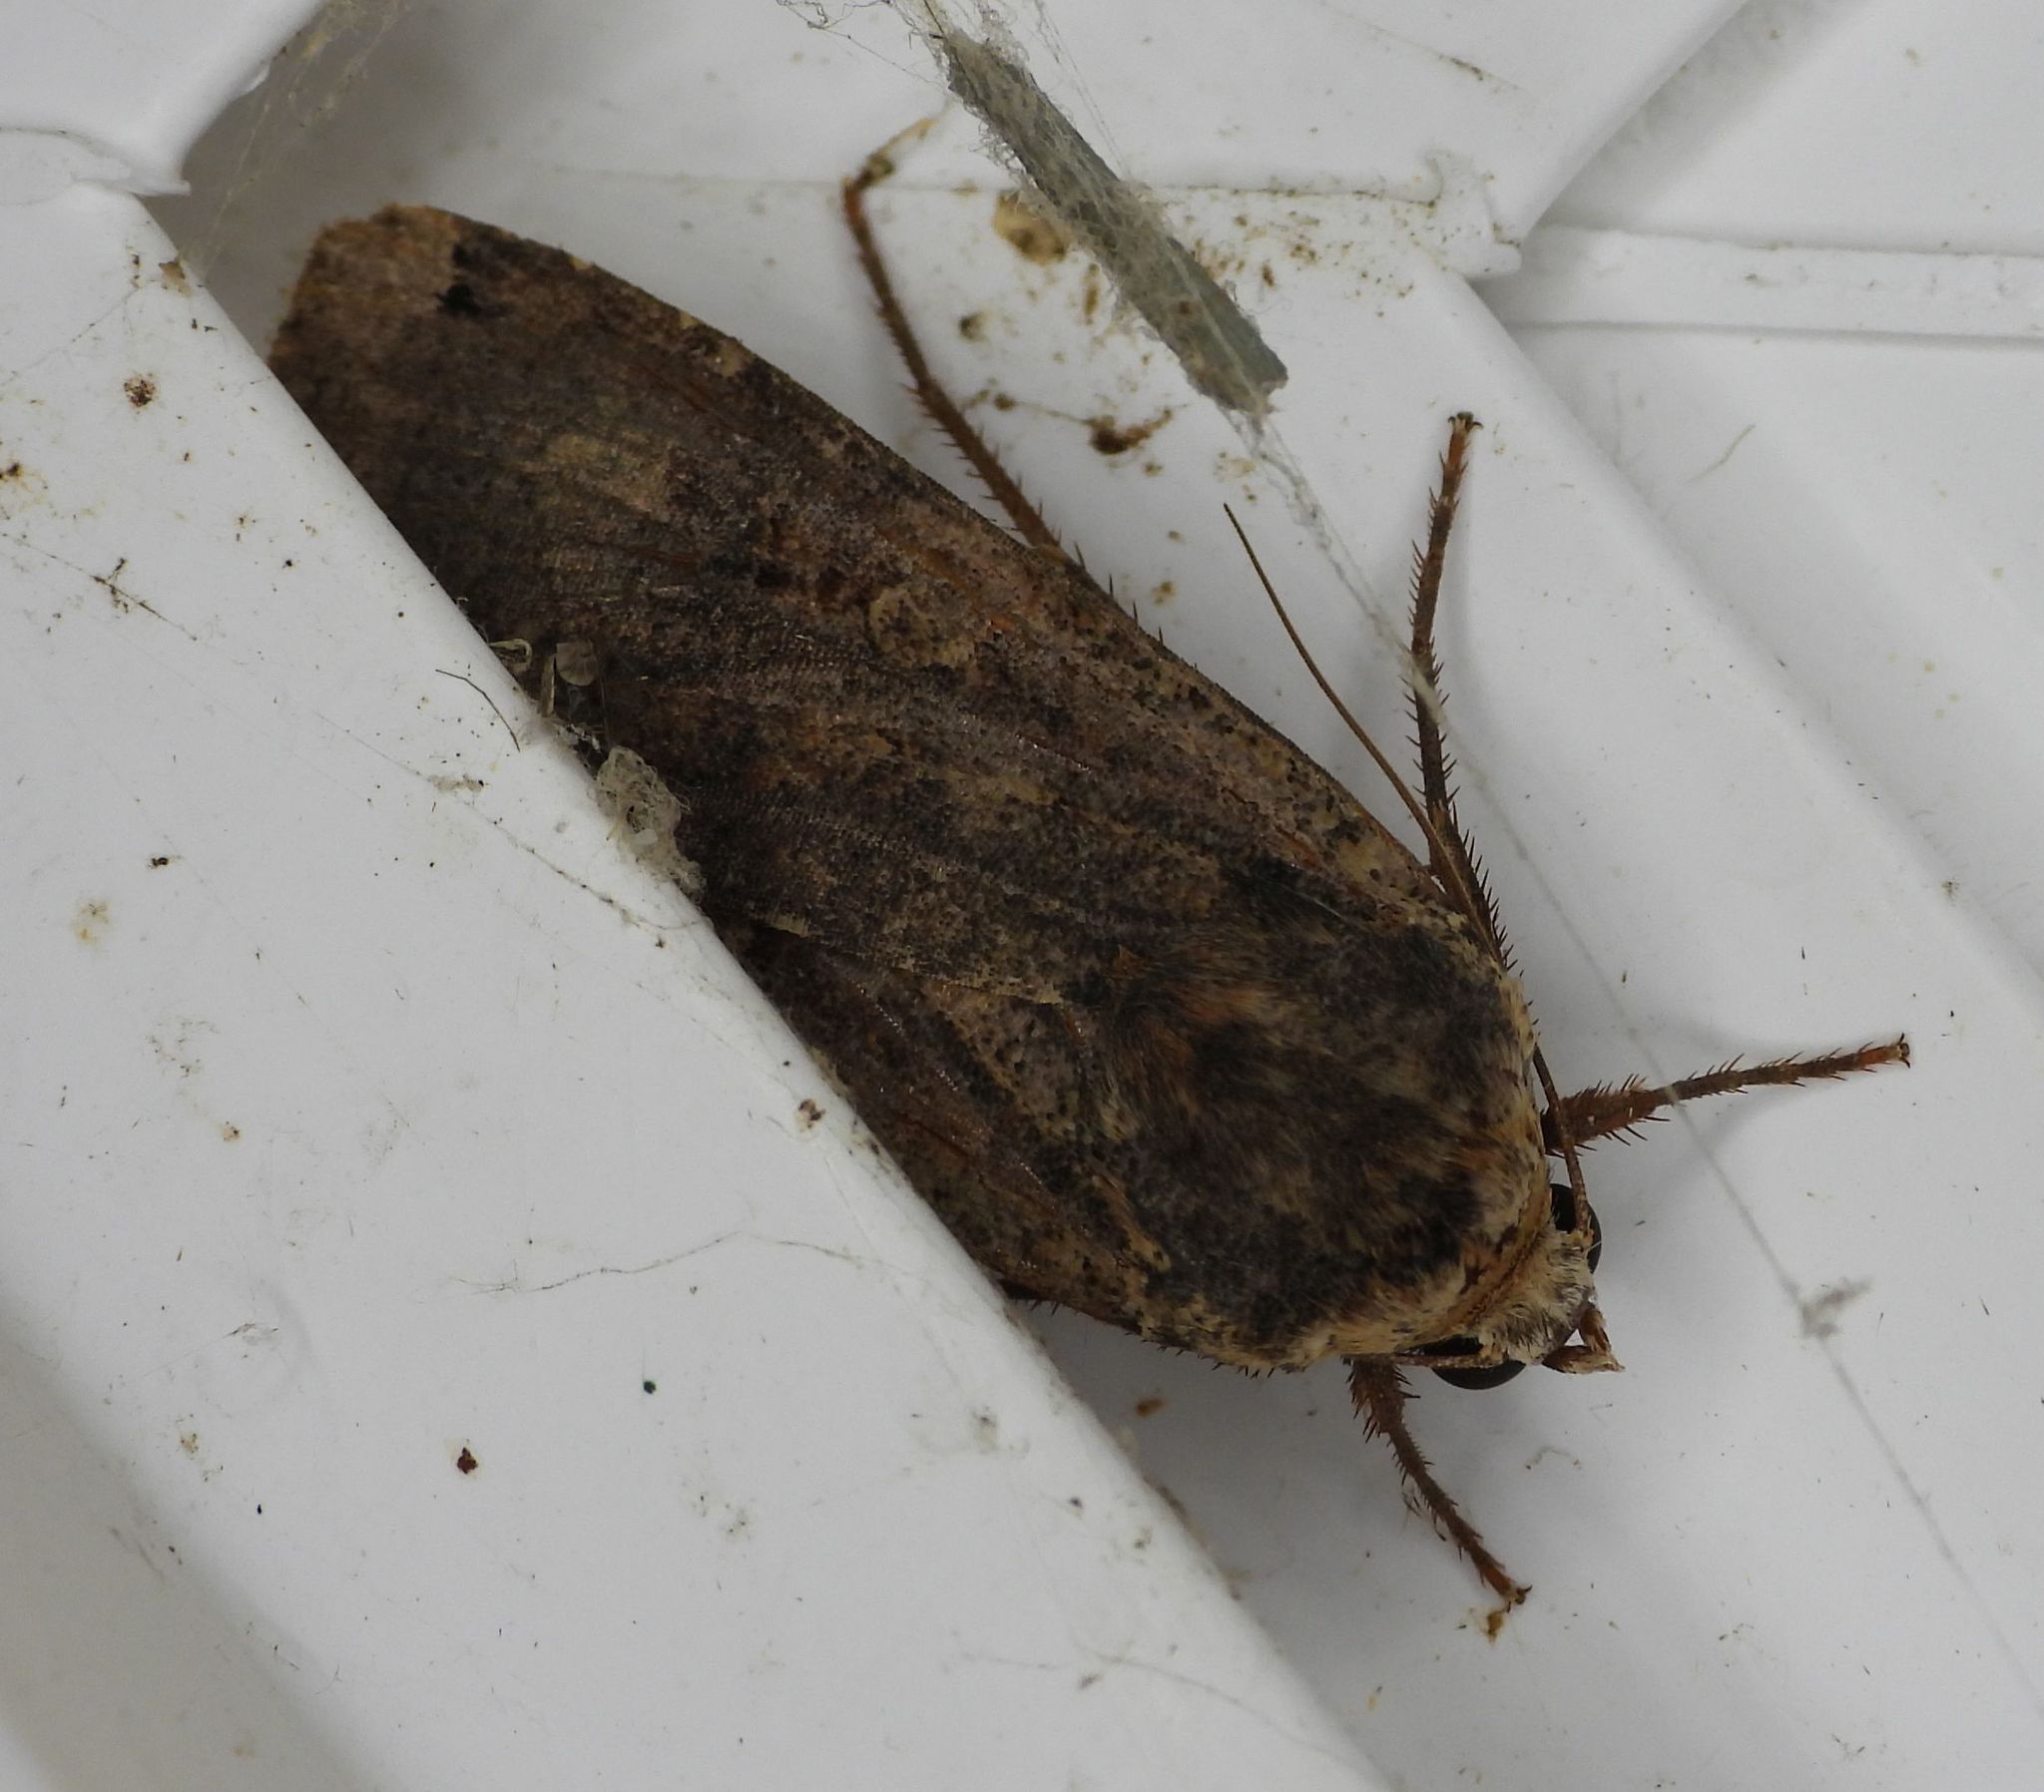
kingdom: Animalia
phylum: Arthropoda
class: Insecta
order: Lepidoptera
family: Noctuidae
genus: Noctua
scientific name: Noctua pronuba
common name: Large yellow underwing
